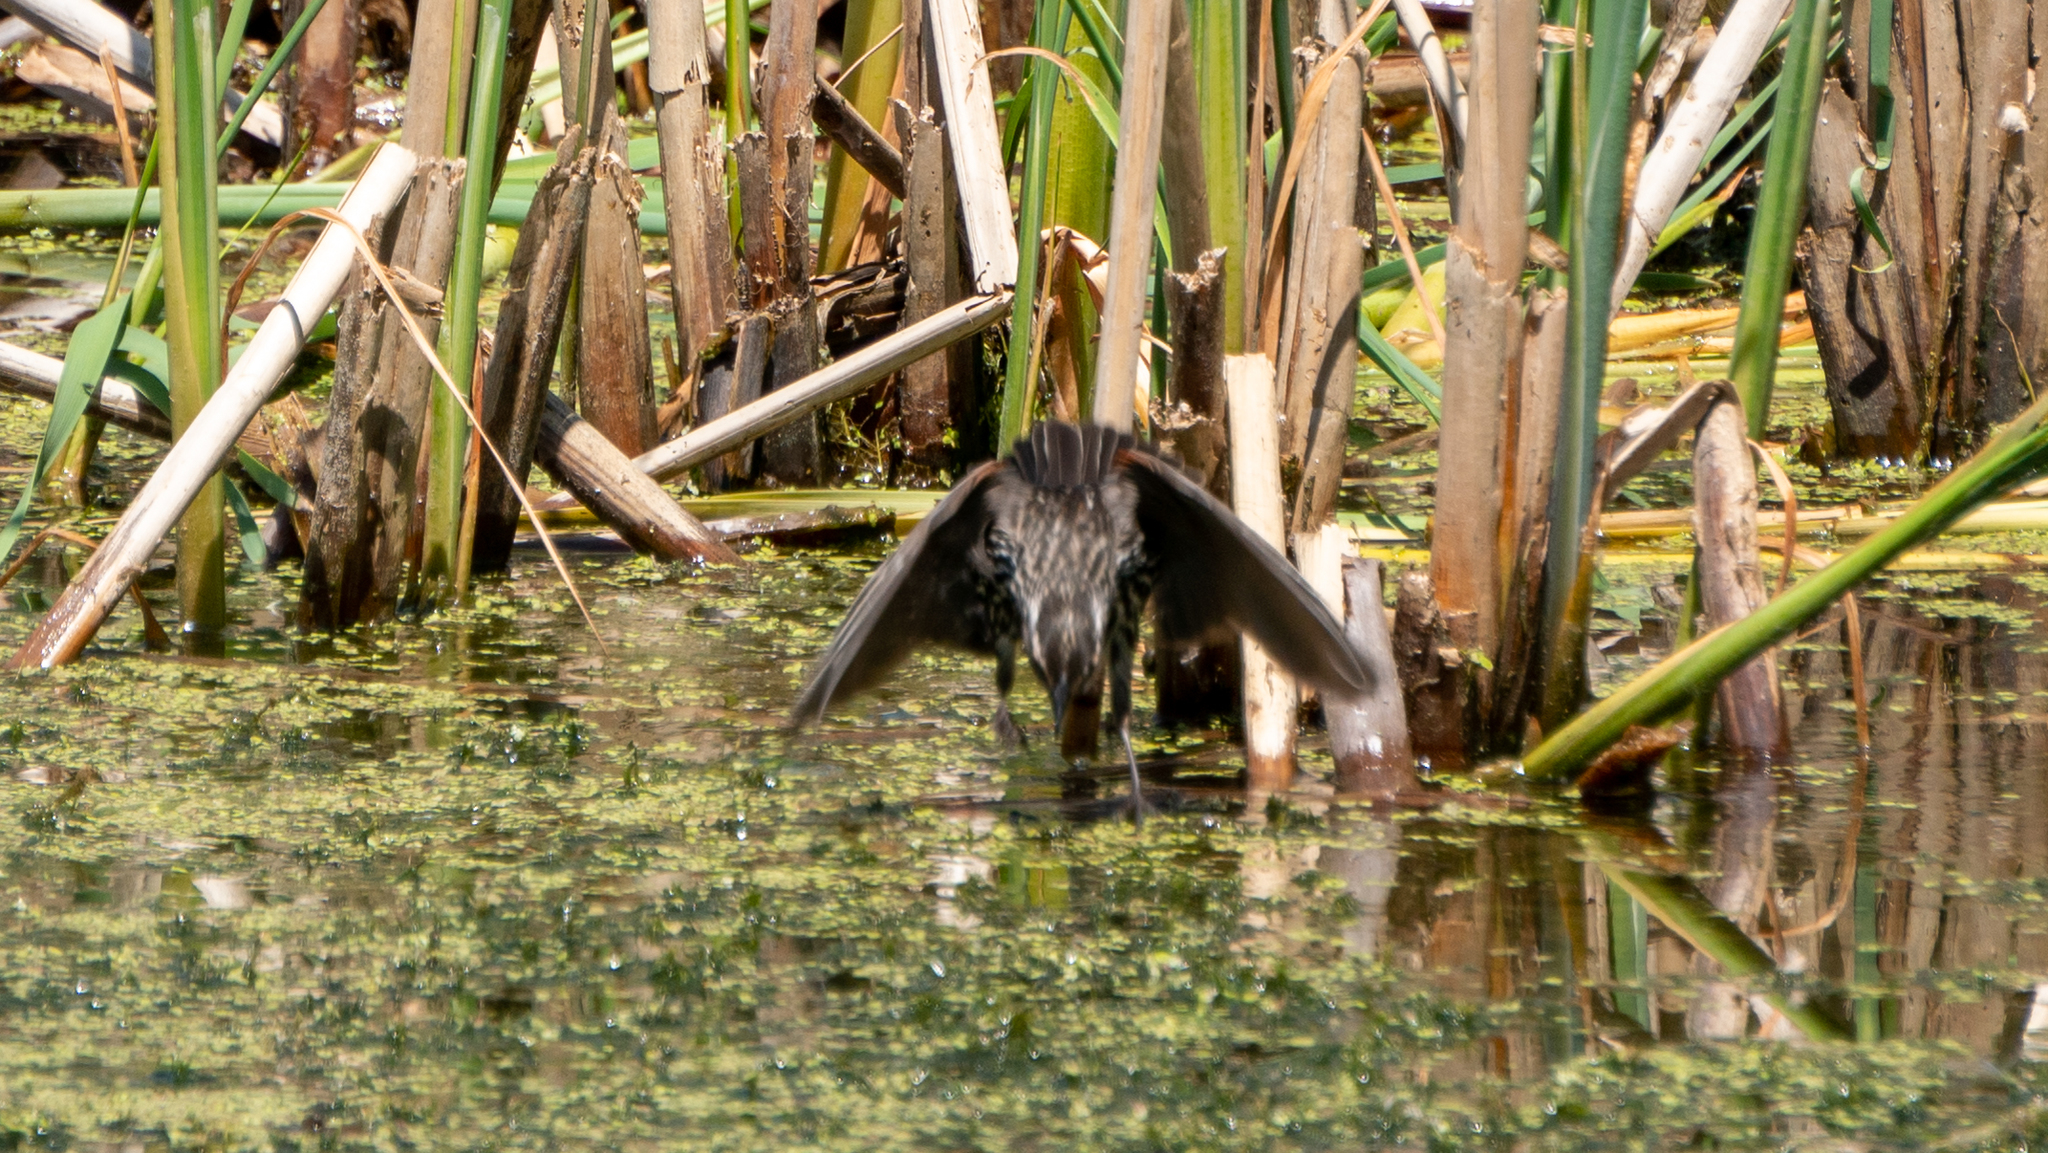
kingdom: Animalia
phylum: Chordata
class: Aves
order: Passeriformes
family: Icteridae
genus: Agelaius
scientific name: Agelaius phoeniceus
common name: Red-winged blackbird
